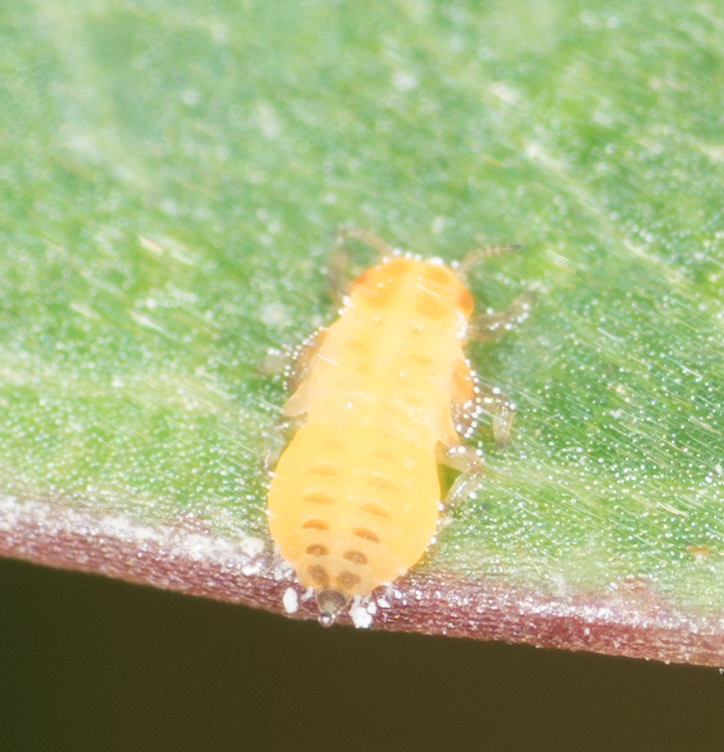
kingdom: Animalia
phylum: Arthropoda
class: Insecta
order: Hemiptera
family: Aphalaridae
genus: Glycaspis
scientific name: Glycaspis brimblecombei
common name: Red gum lerp psyllid
